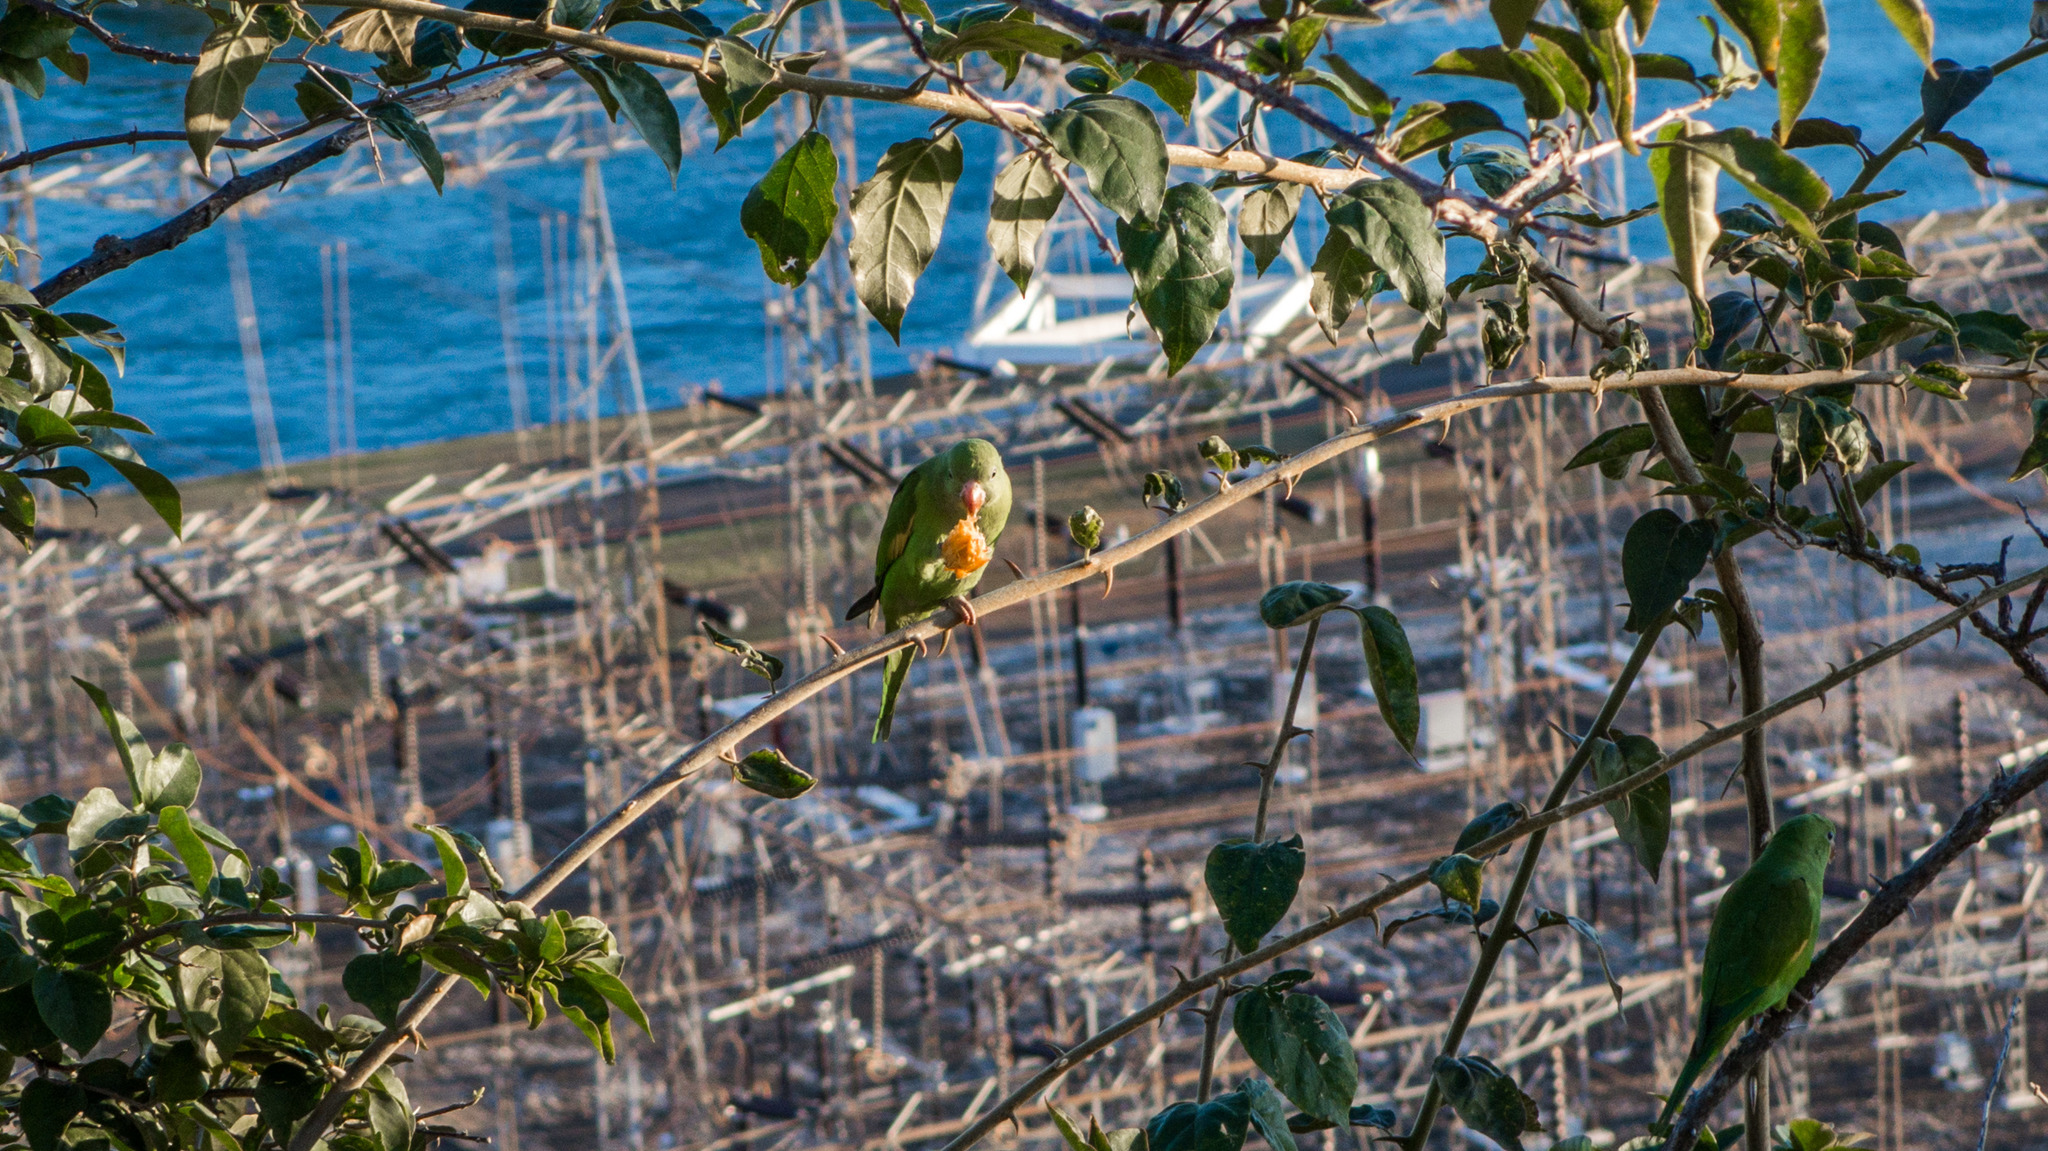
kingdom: Animalia
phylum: Chordata
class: Aves
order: Psittaciformes
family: Psittacidae
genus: Brotogeris
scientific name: Brotogeris chiriri
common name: Yellow-chevroned parakeet
